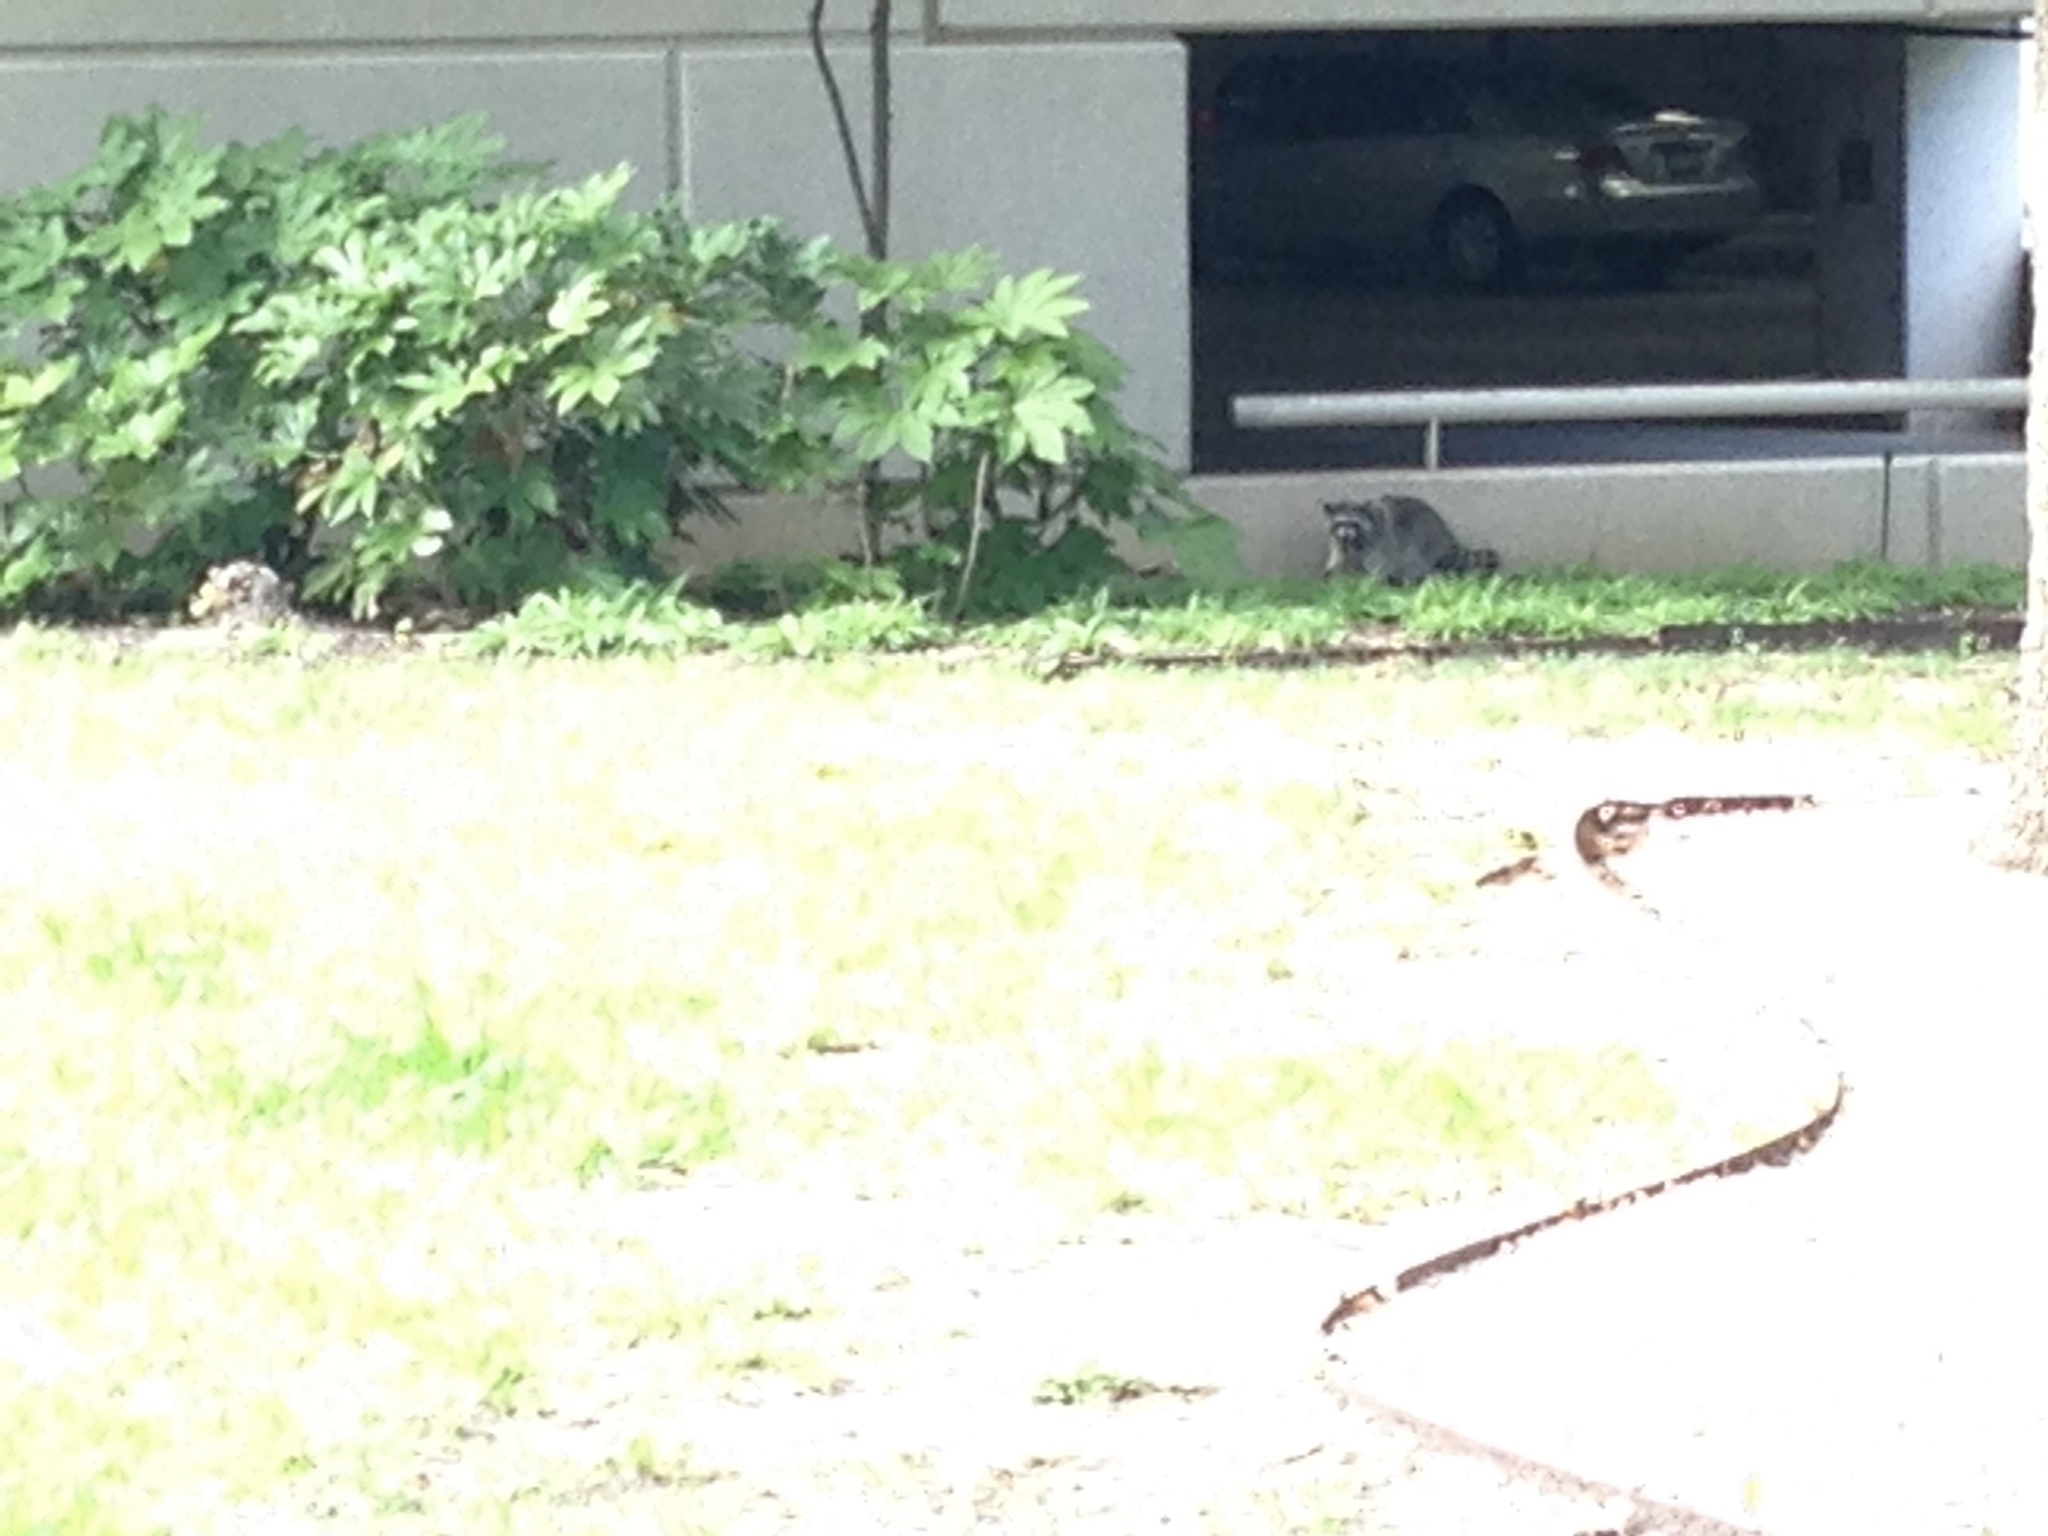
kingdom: Animalia
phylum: Chordata
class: Mammalia
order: Carnivora
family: Procyonidae
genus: Procyon
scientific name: Procyon lotor
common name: Raccoon
